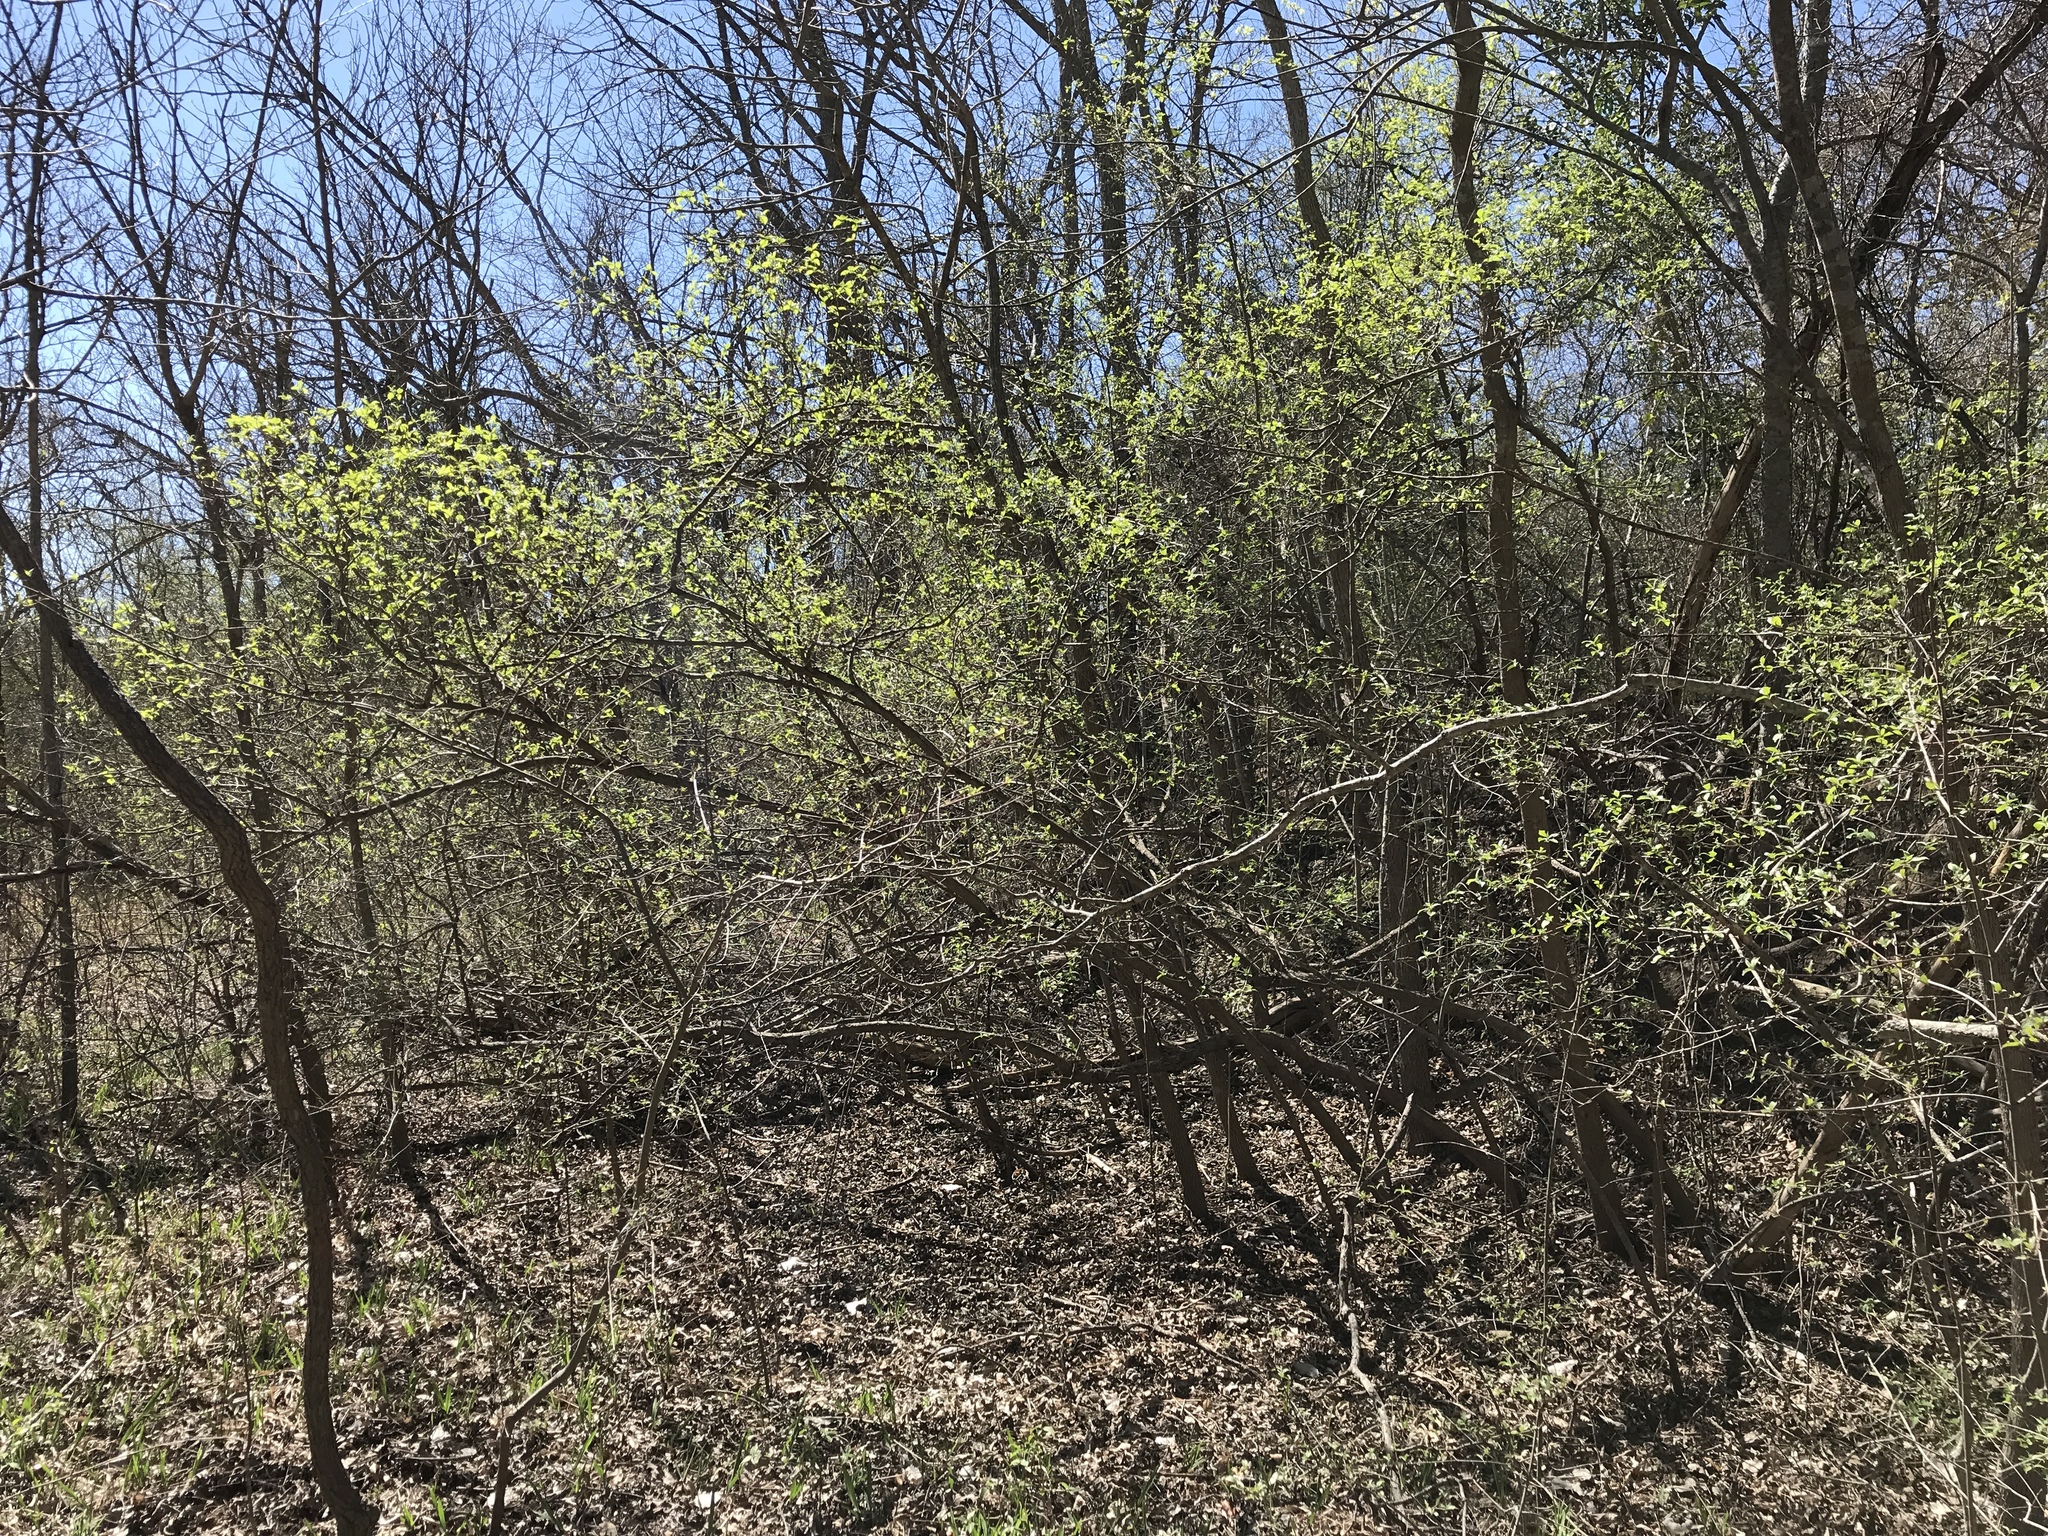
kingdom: Plantae
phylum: Tracheophyta
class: Magnoliopsida
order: Cornales
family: Cornaceae
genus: Cornus
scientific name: Cornus drummondii
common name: Rough-leaf dogwood
